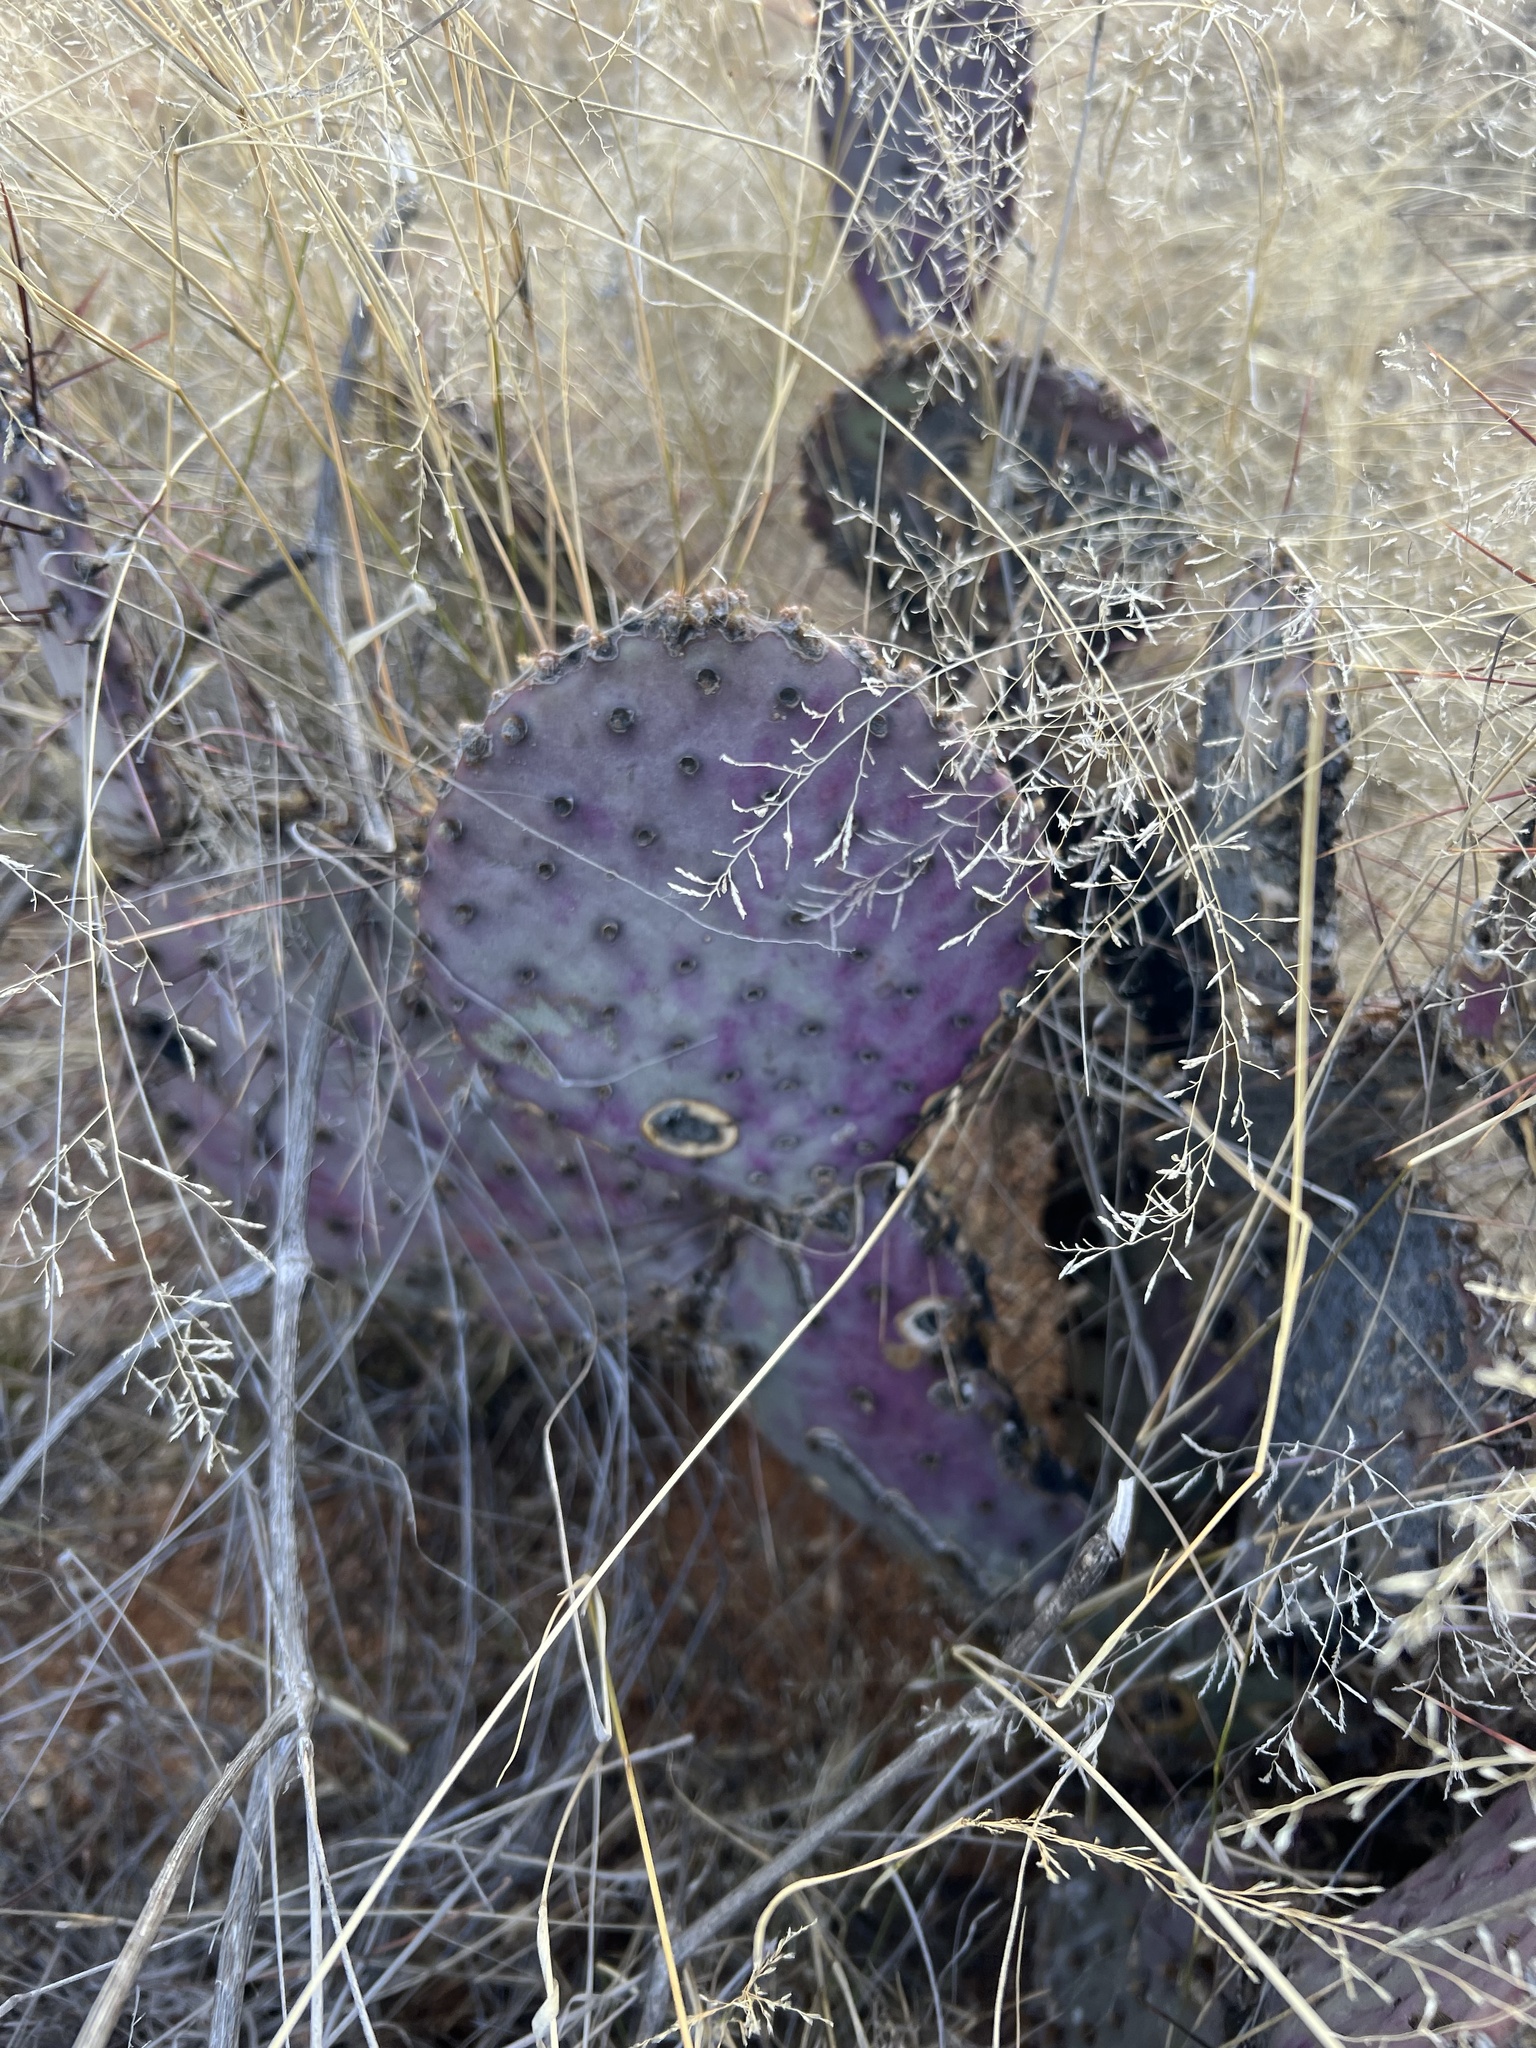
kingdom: Plantae
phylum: Tracheophyta
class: Magnoliopsida
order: Caryophyllales
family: Cactaceae
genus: Opuntia
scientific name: Opuntia macrocentra
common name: Purple prickly-pear
